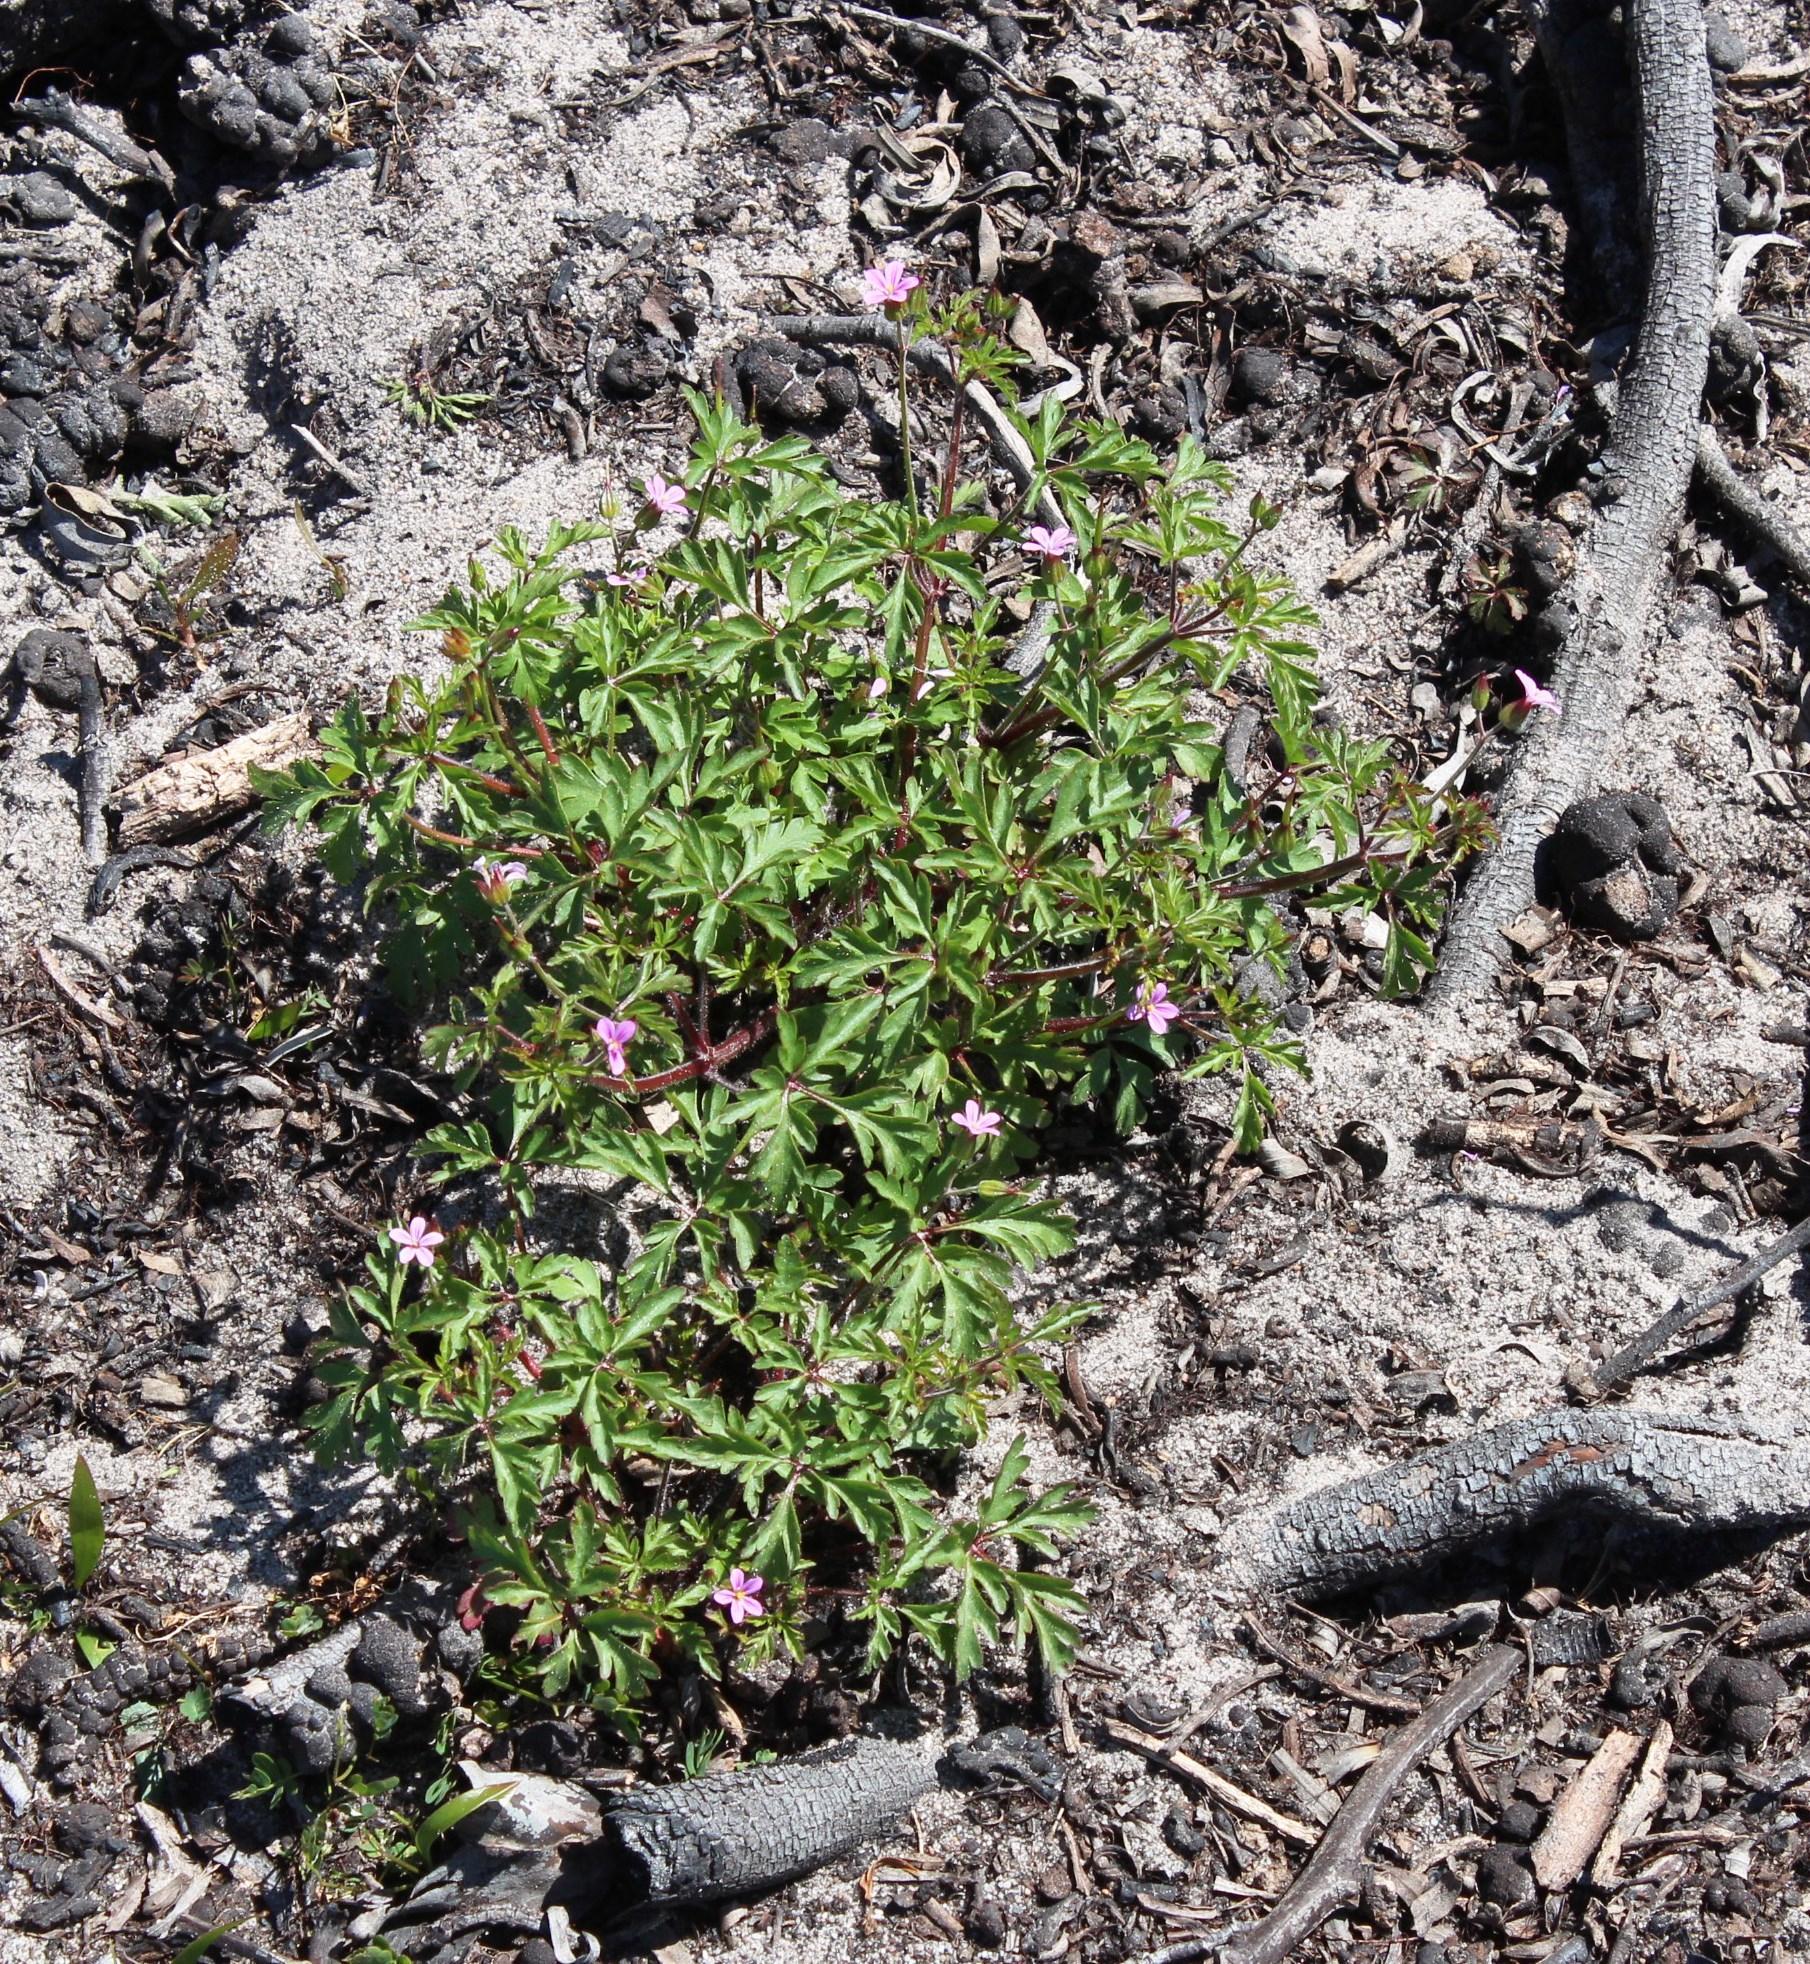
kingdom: Plantae
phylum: Tracheophyta
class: Magnoliopsida
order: Geraniales
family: Geraniaceae
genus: Geranium
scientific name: Geranium purpureum
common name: Little-robin
